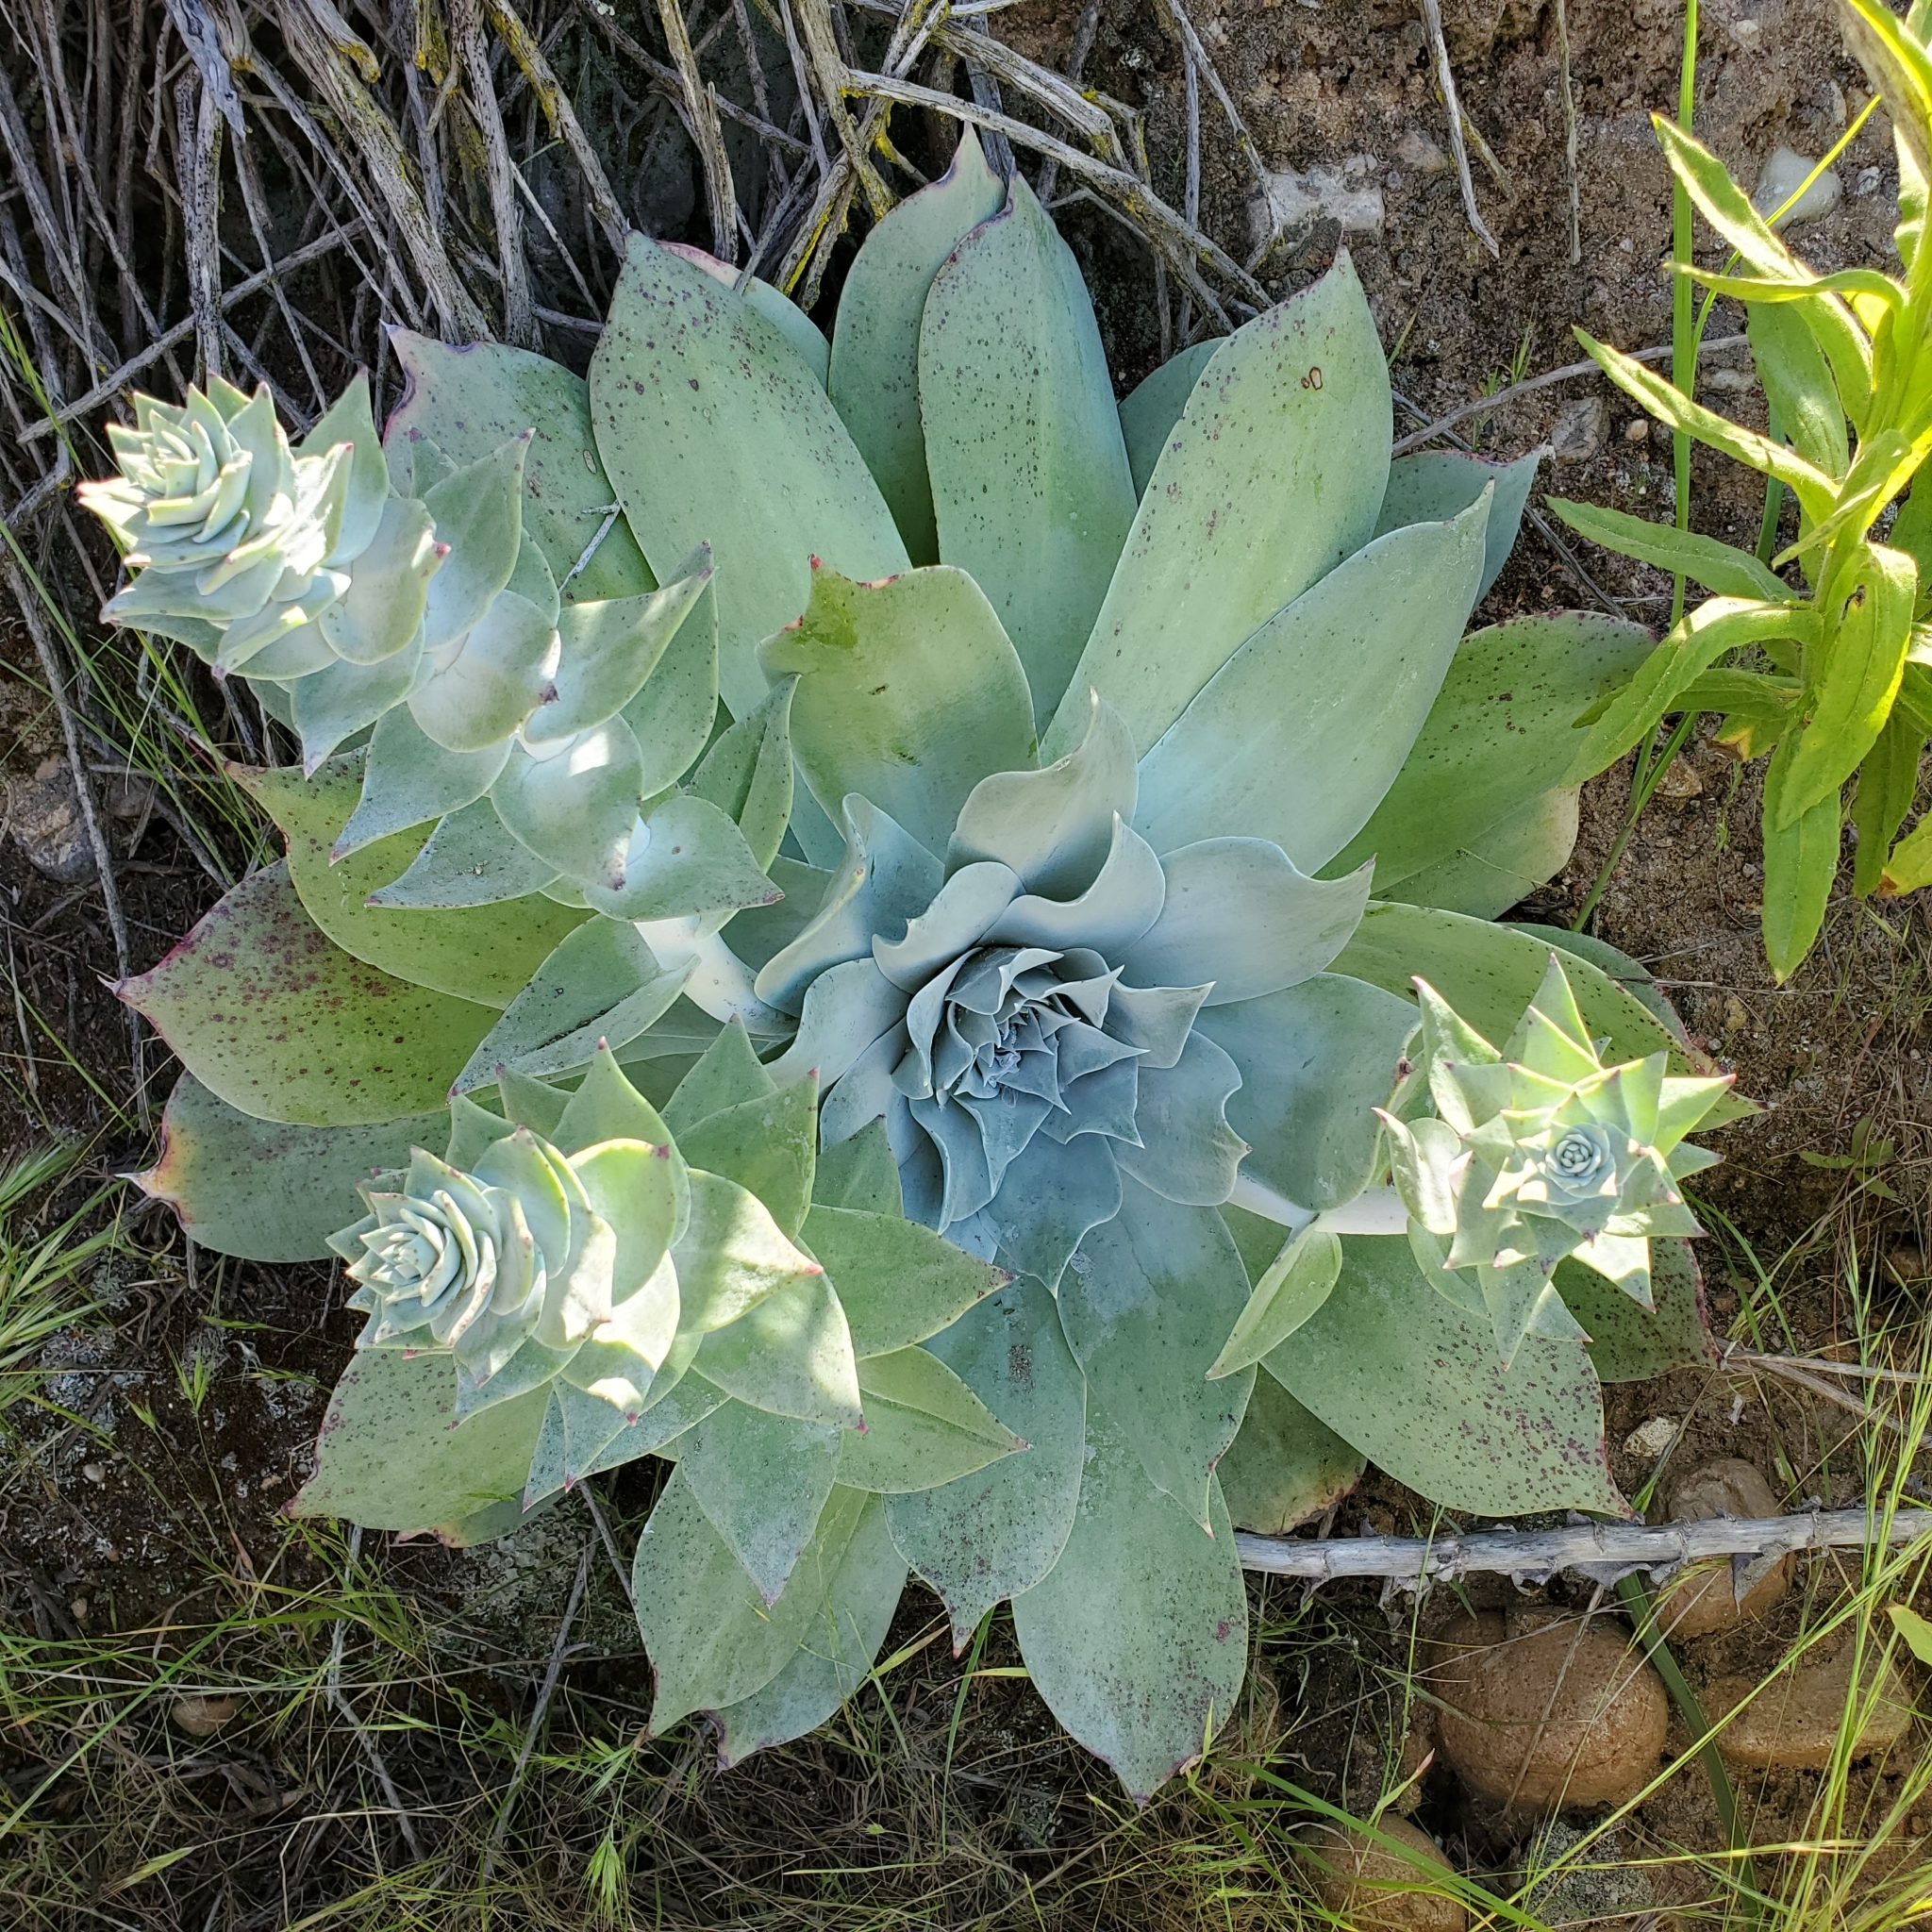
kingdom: Plantae
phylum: Tracheophyta
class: Magnoliopsida
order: Saxifragales
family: Crassulaceae
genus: Dudleya
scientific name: Dudleya pulverulenta
